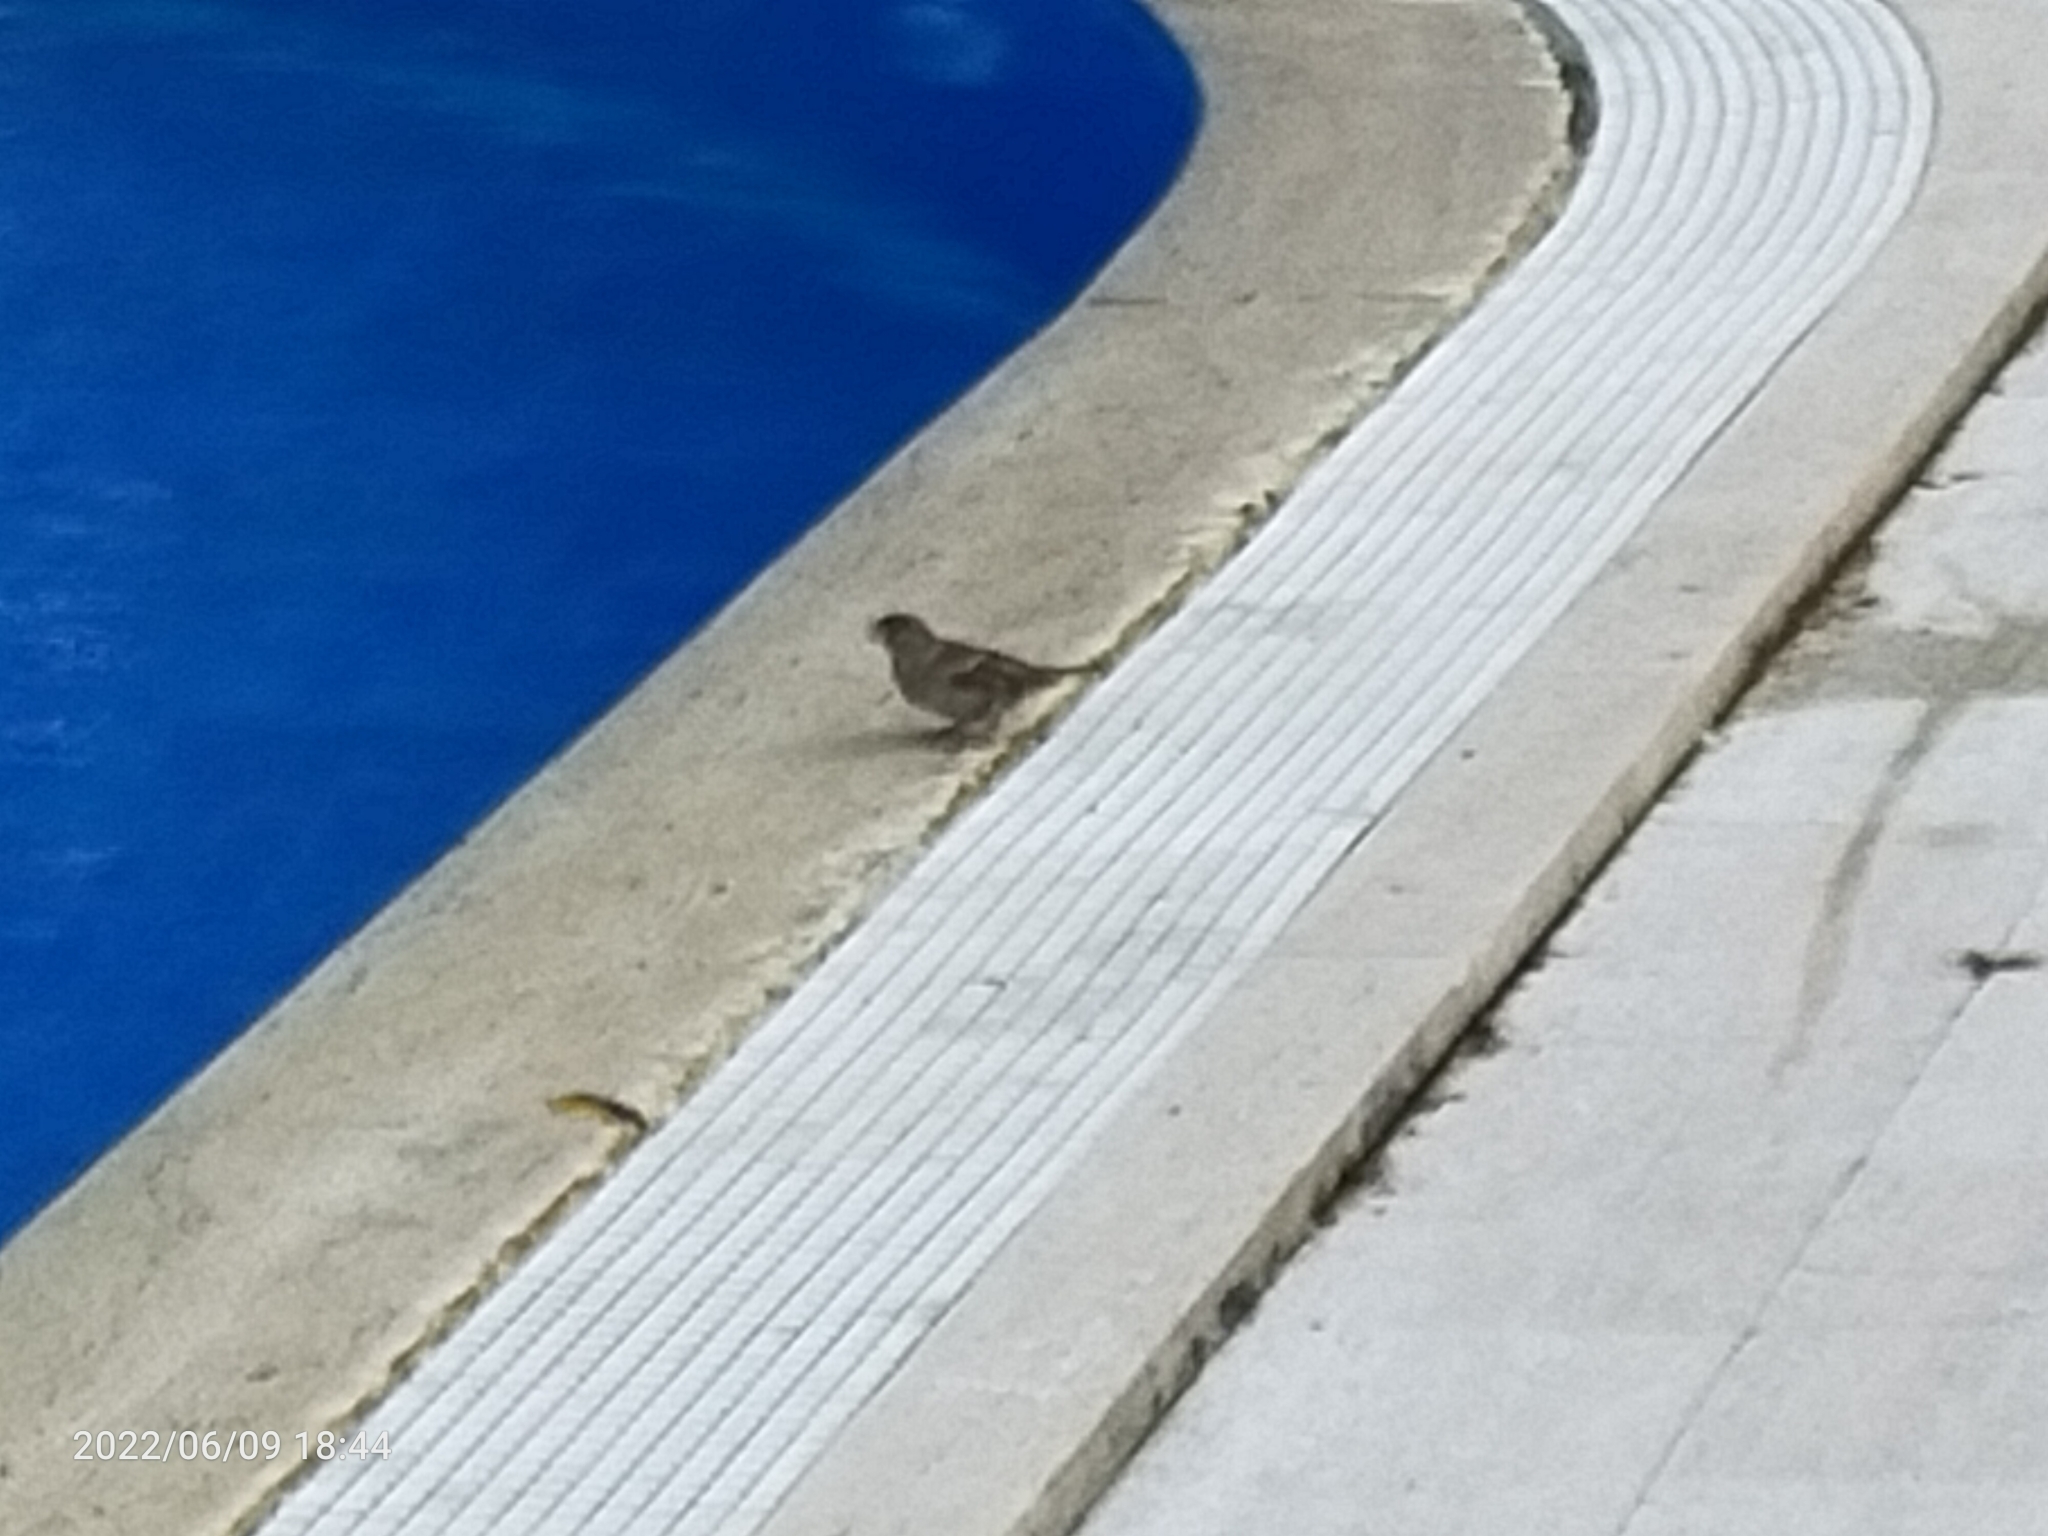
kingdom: Animalia
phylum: Chordata
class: Aves
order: Passeriformes
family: Passeridae
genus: Passer
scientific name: Passer domesticus
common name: House sparrow
